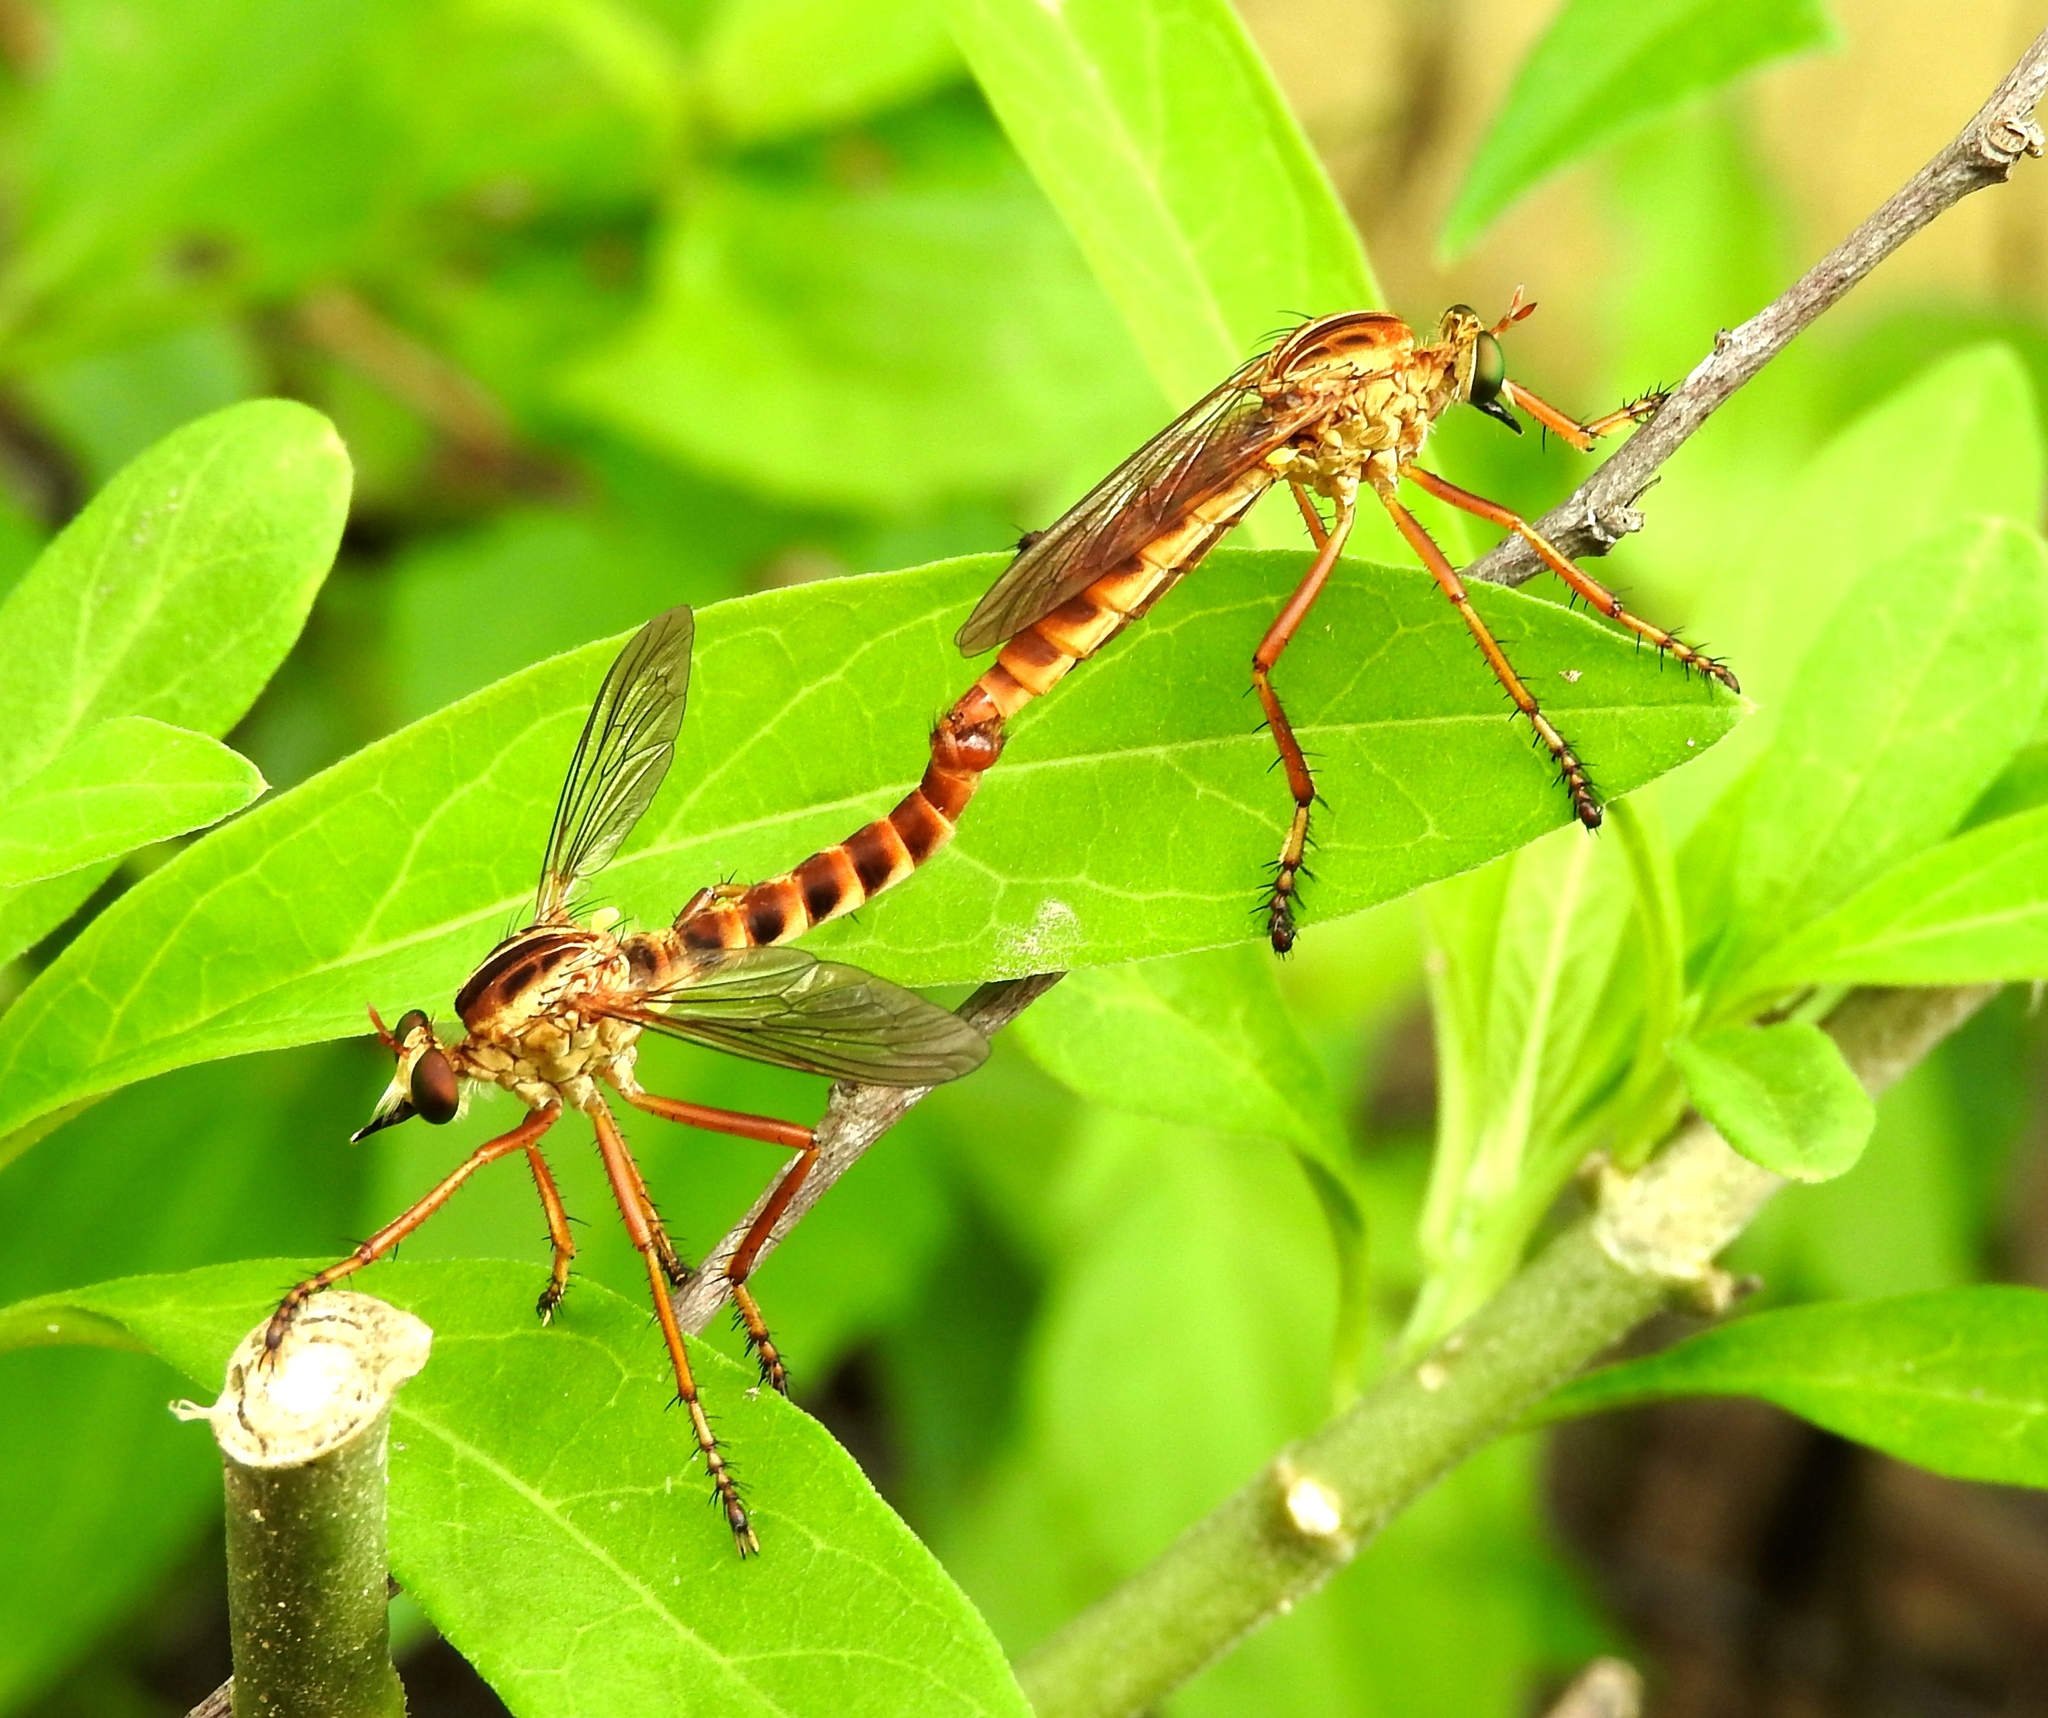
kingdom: Animalia
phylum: Arthropoda
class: Insecta
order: Diptera
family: Asilidae
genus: Diogmites
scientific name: Diogmites
